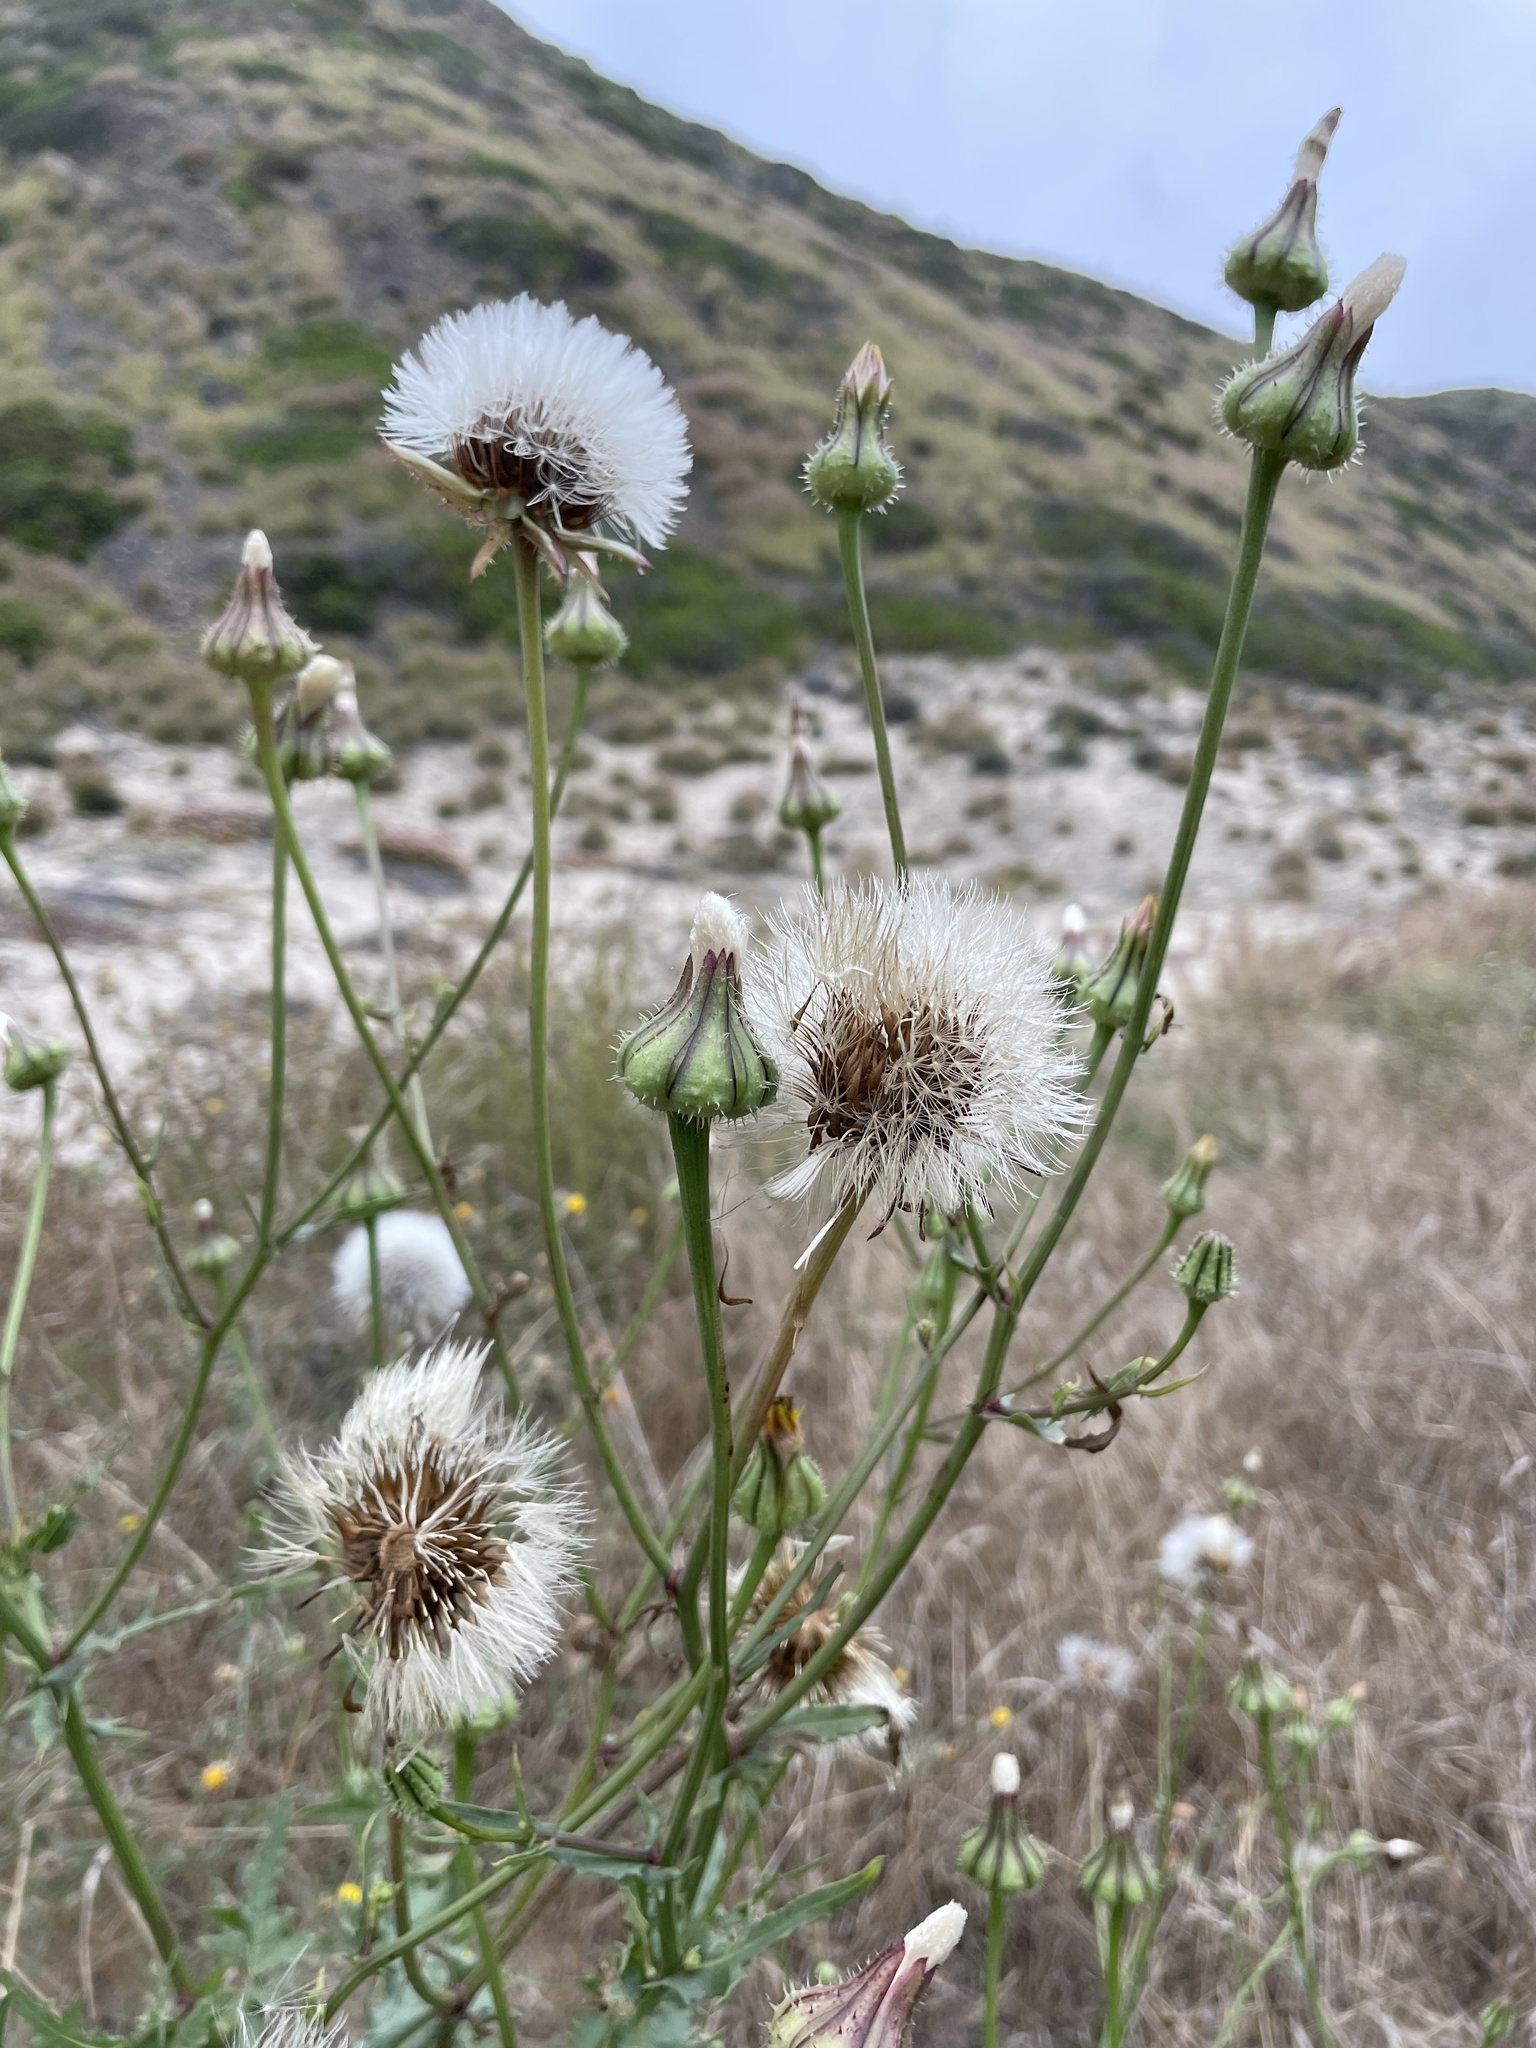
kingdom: Plantae
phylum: Tracheophyta
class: Magnoliopsida
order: Asterales
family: Asteraceae
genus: Urospermum
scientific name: Urospermum picroides
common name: False hawkbit
